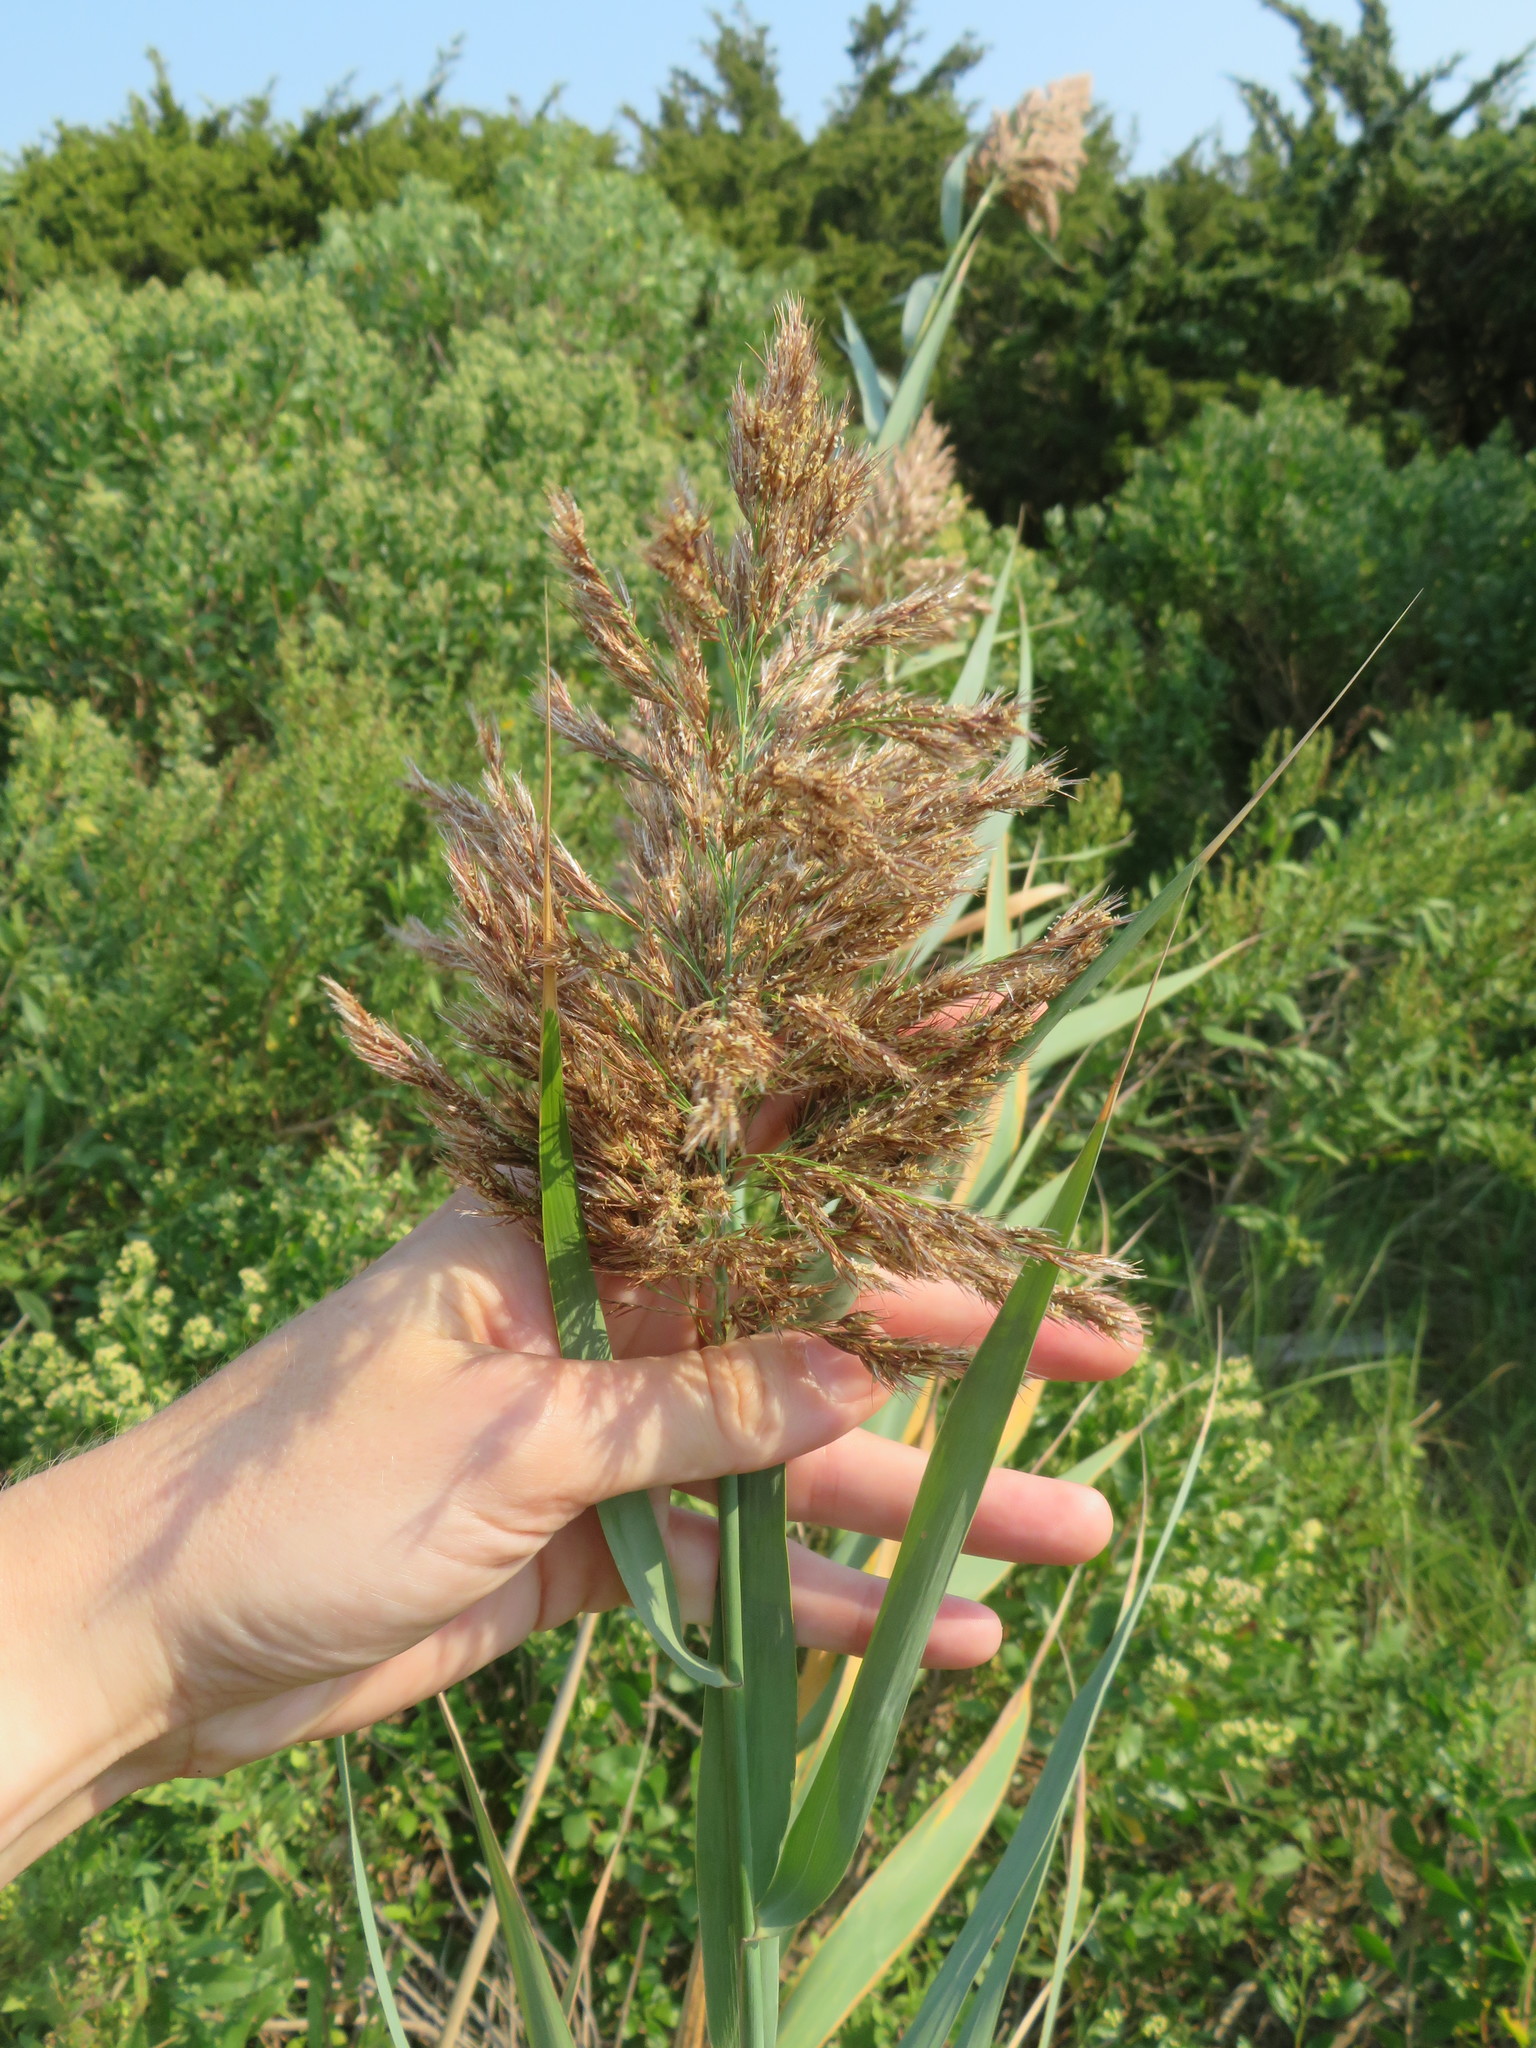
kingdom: Plantae
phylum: Tracheophyta
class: Liliopsida
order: Poales
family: Poaceae
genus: Phragmites
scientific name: Phragmites australis
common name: Common reed
